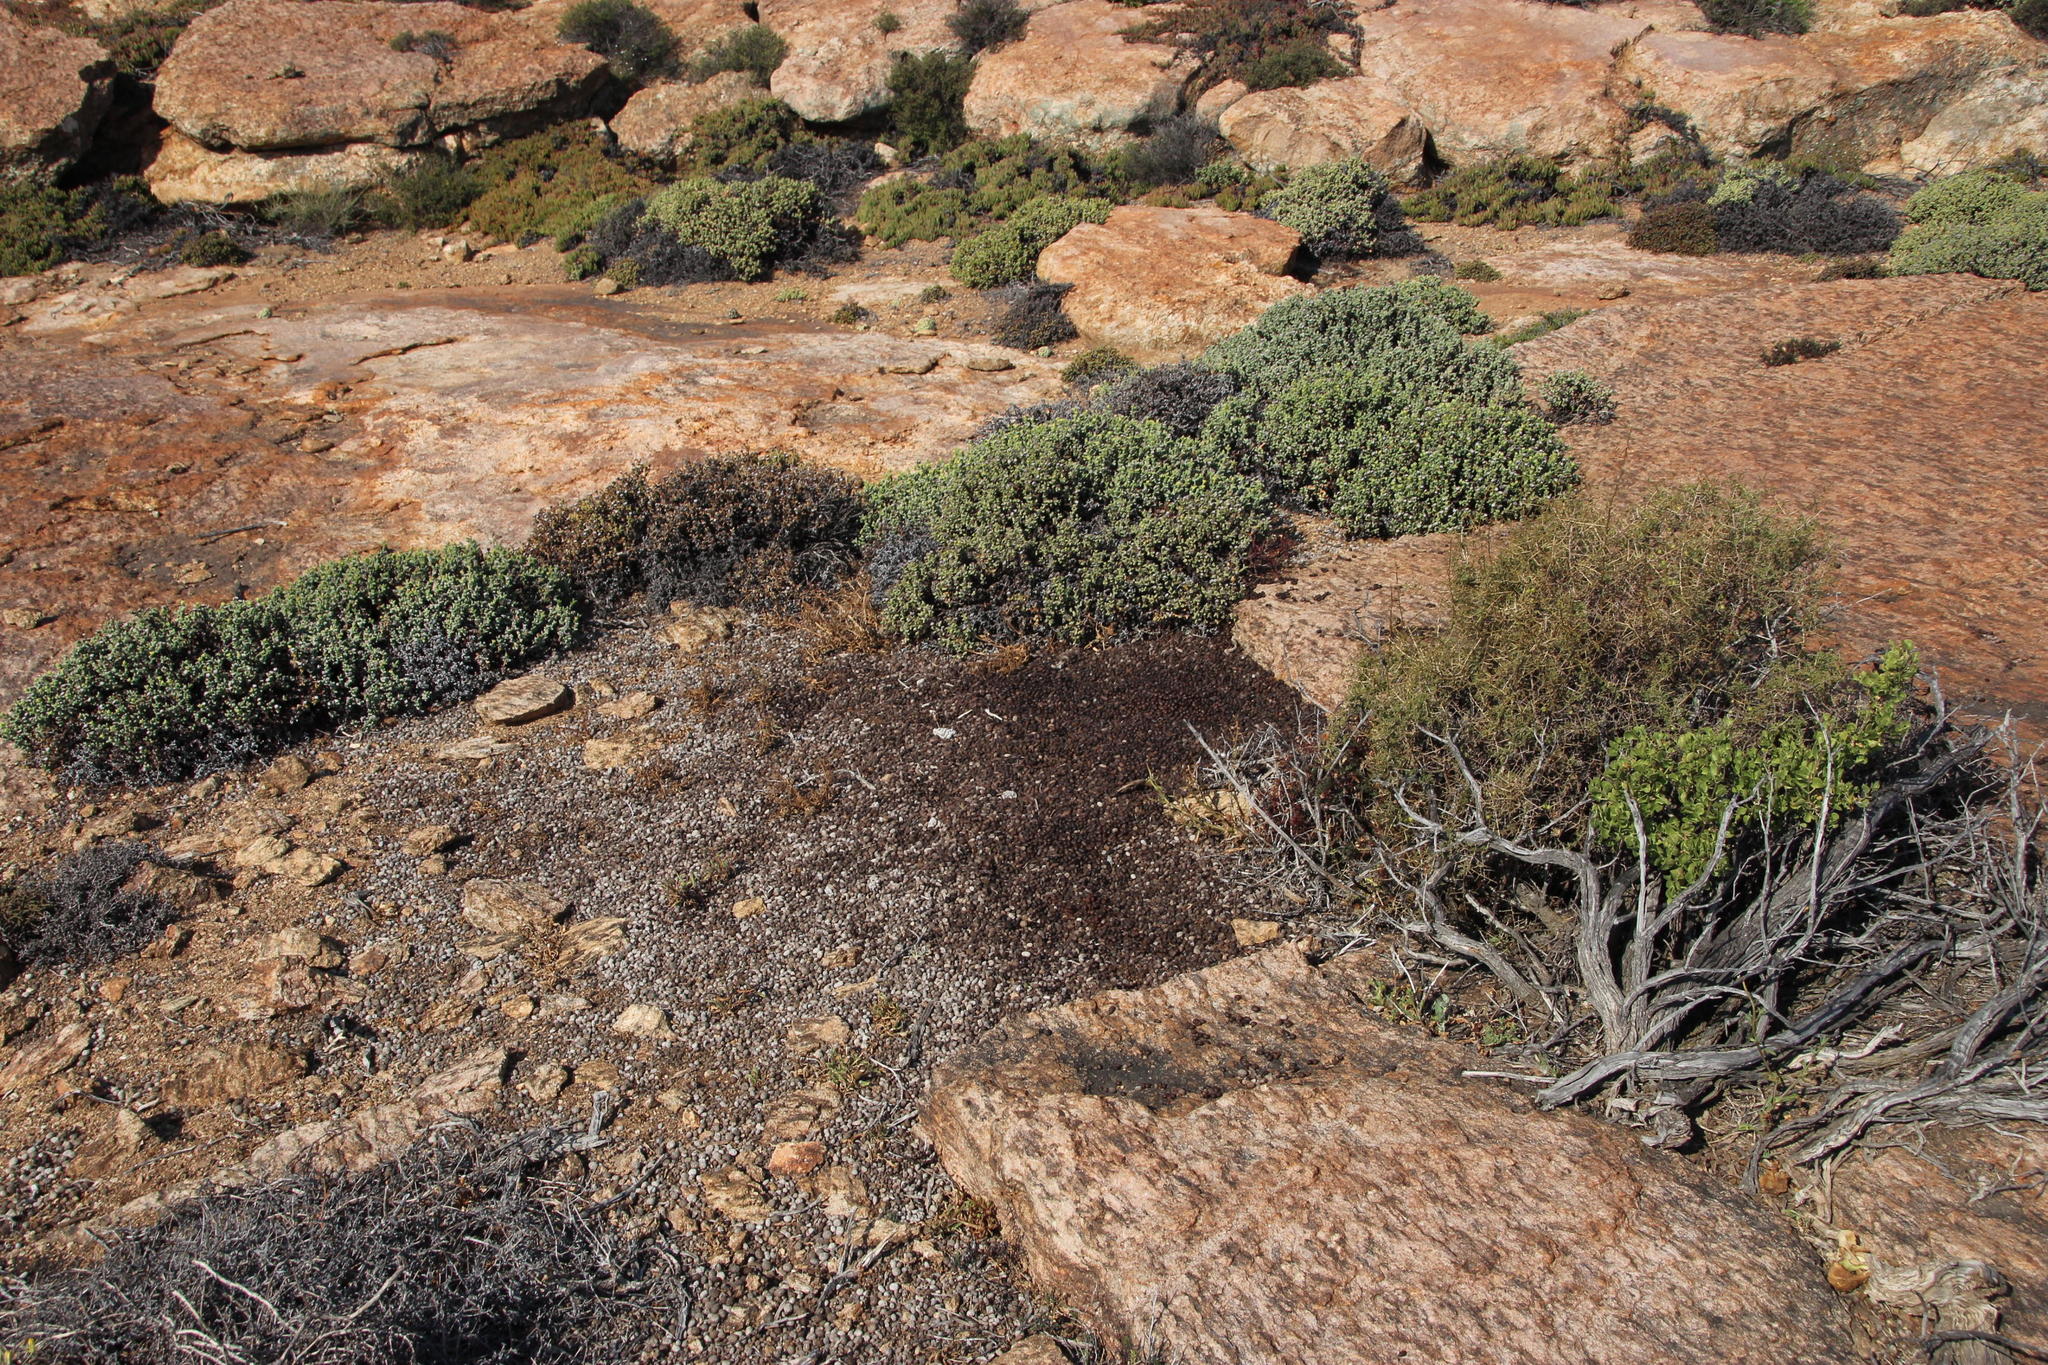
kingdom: Animalia
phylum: Chordata
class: Mammalia
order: Hyracoidea
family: Procaviidae
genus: Procavia
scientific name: Procavia capensis
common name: Rock hyrax
